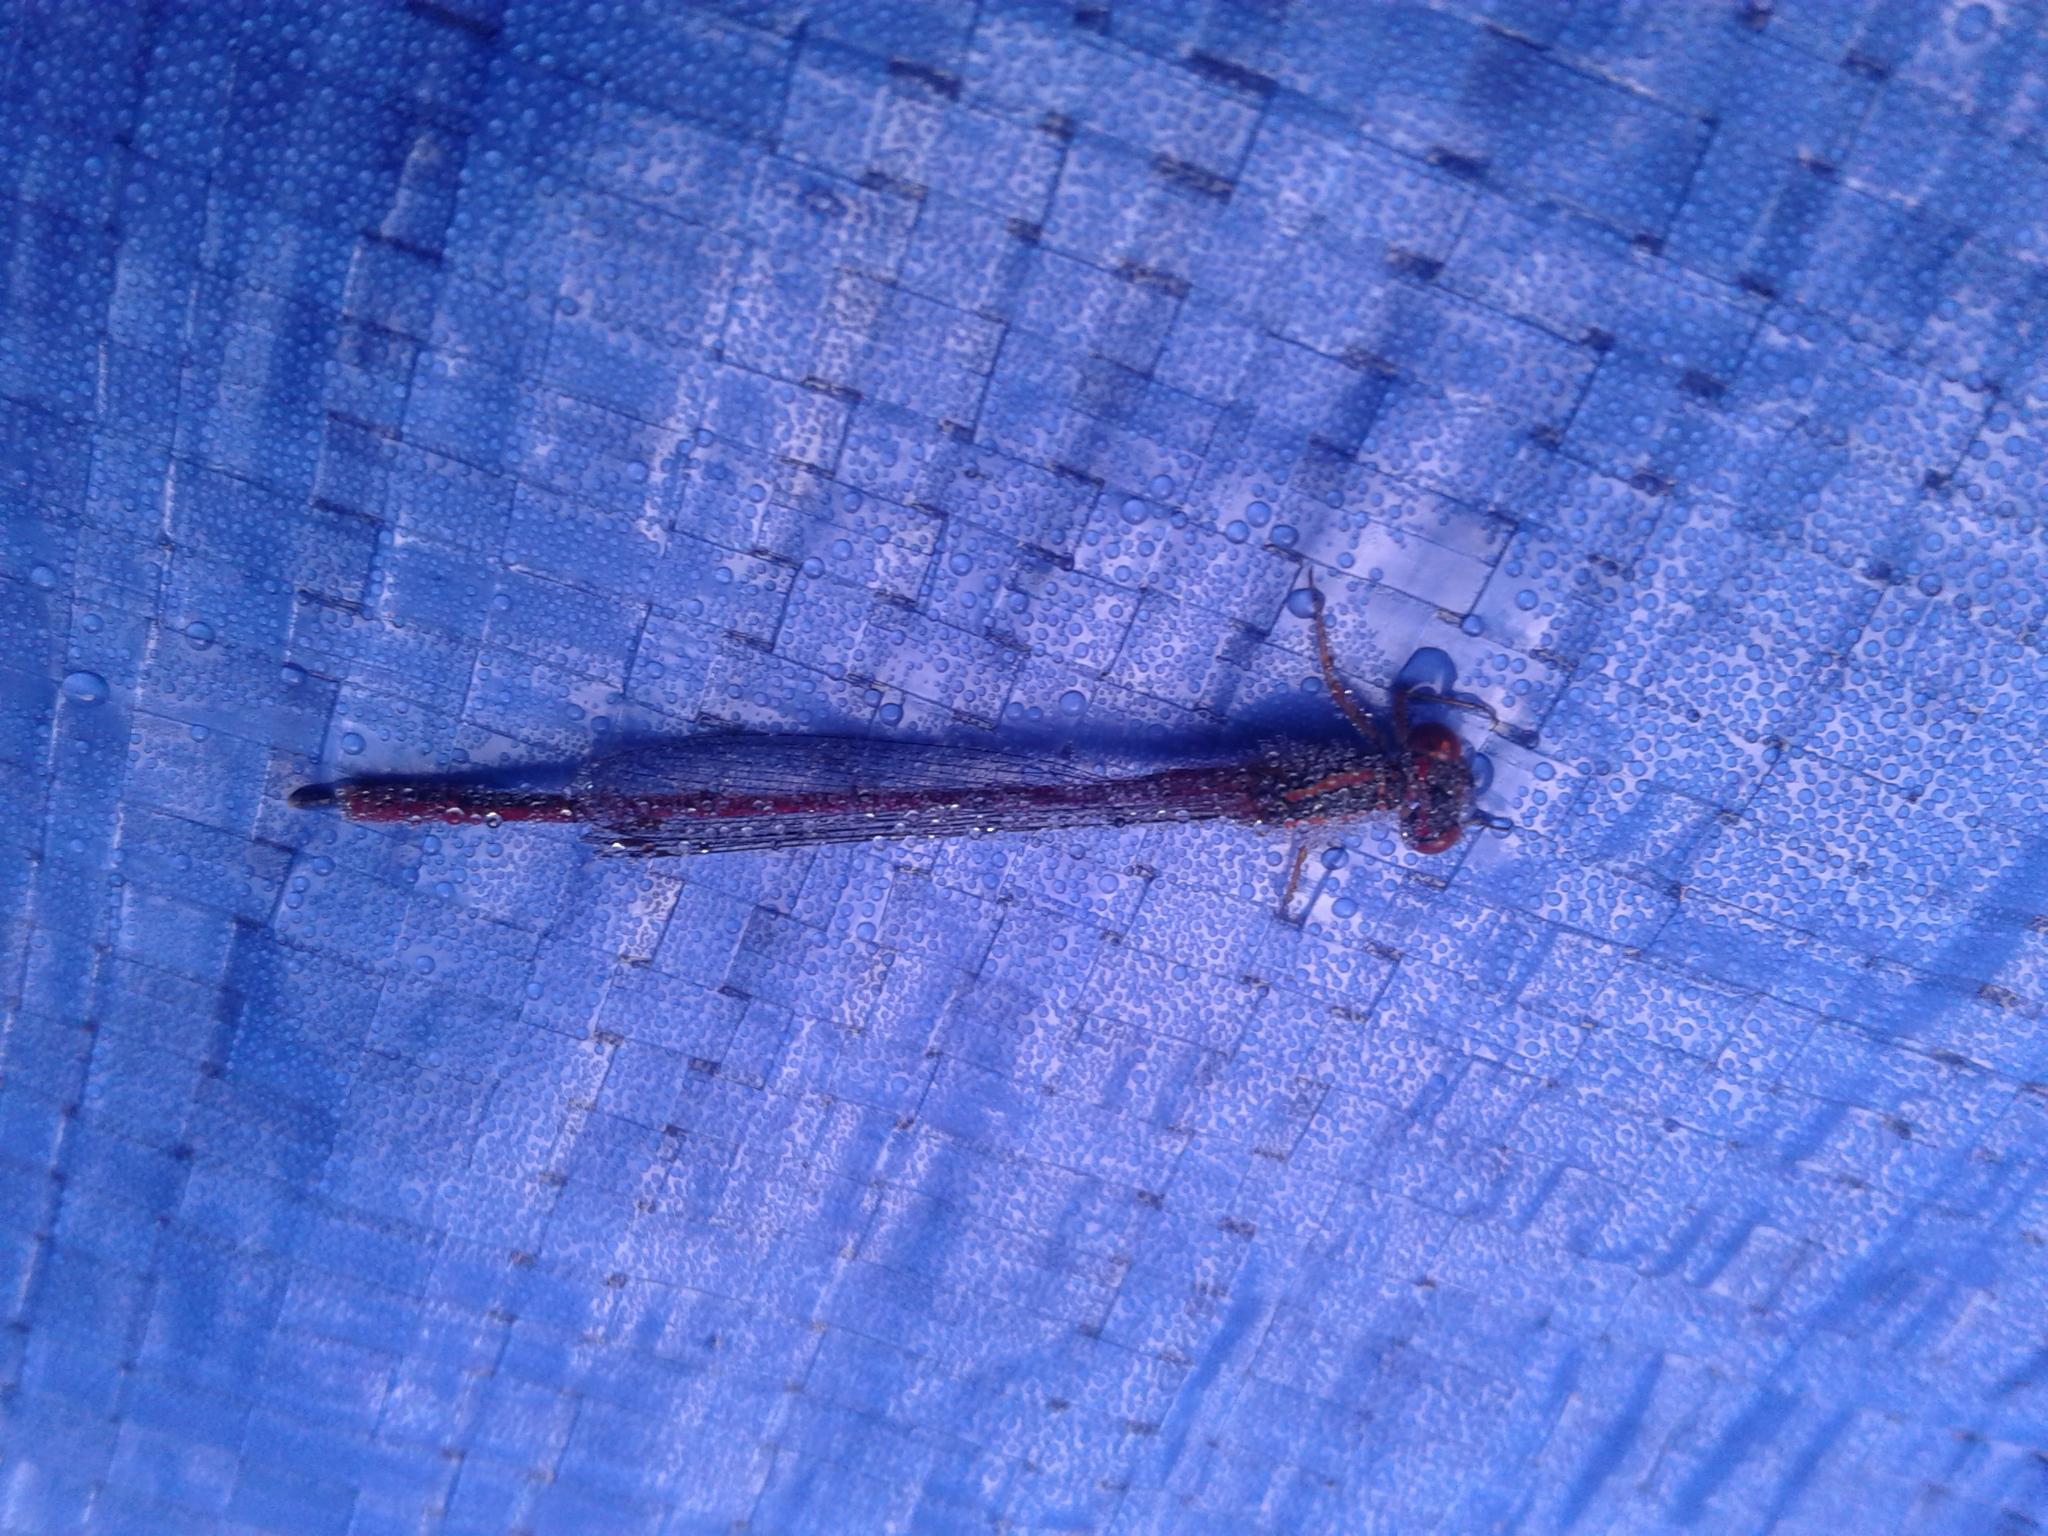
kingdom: Animalia
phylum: Arthropoda
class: Insecta
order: Odonata
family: Coenagrionidae
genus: Xanthocnemis
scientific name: Xanthocnemis zealandica
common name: Common redcoat damselfly
